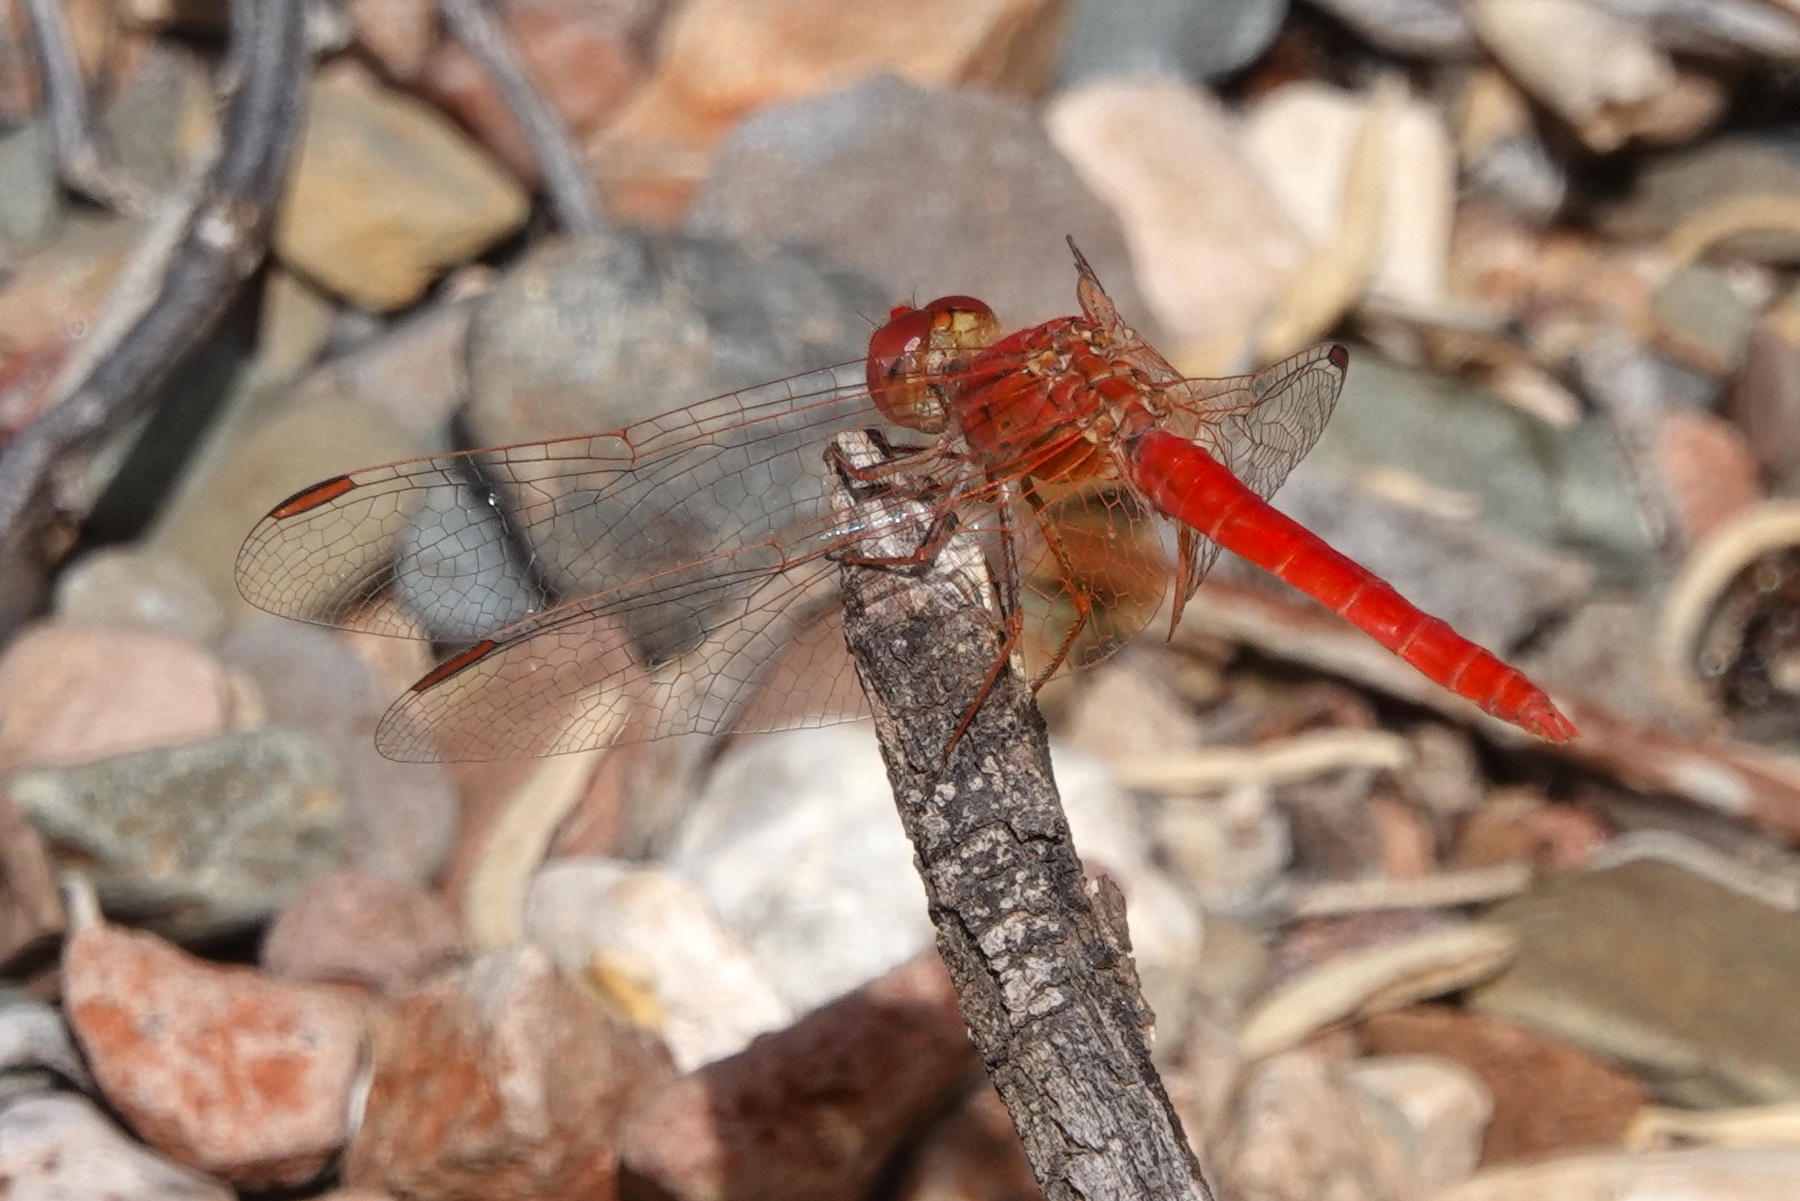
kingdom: Animalia
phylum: Arthropoda
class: Insecta
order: Odonata
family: Libellulidae
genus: Diplacodes
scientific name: Diplacodes haematodes
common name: Scarlet percher
